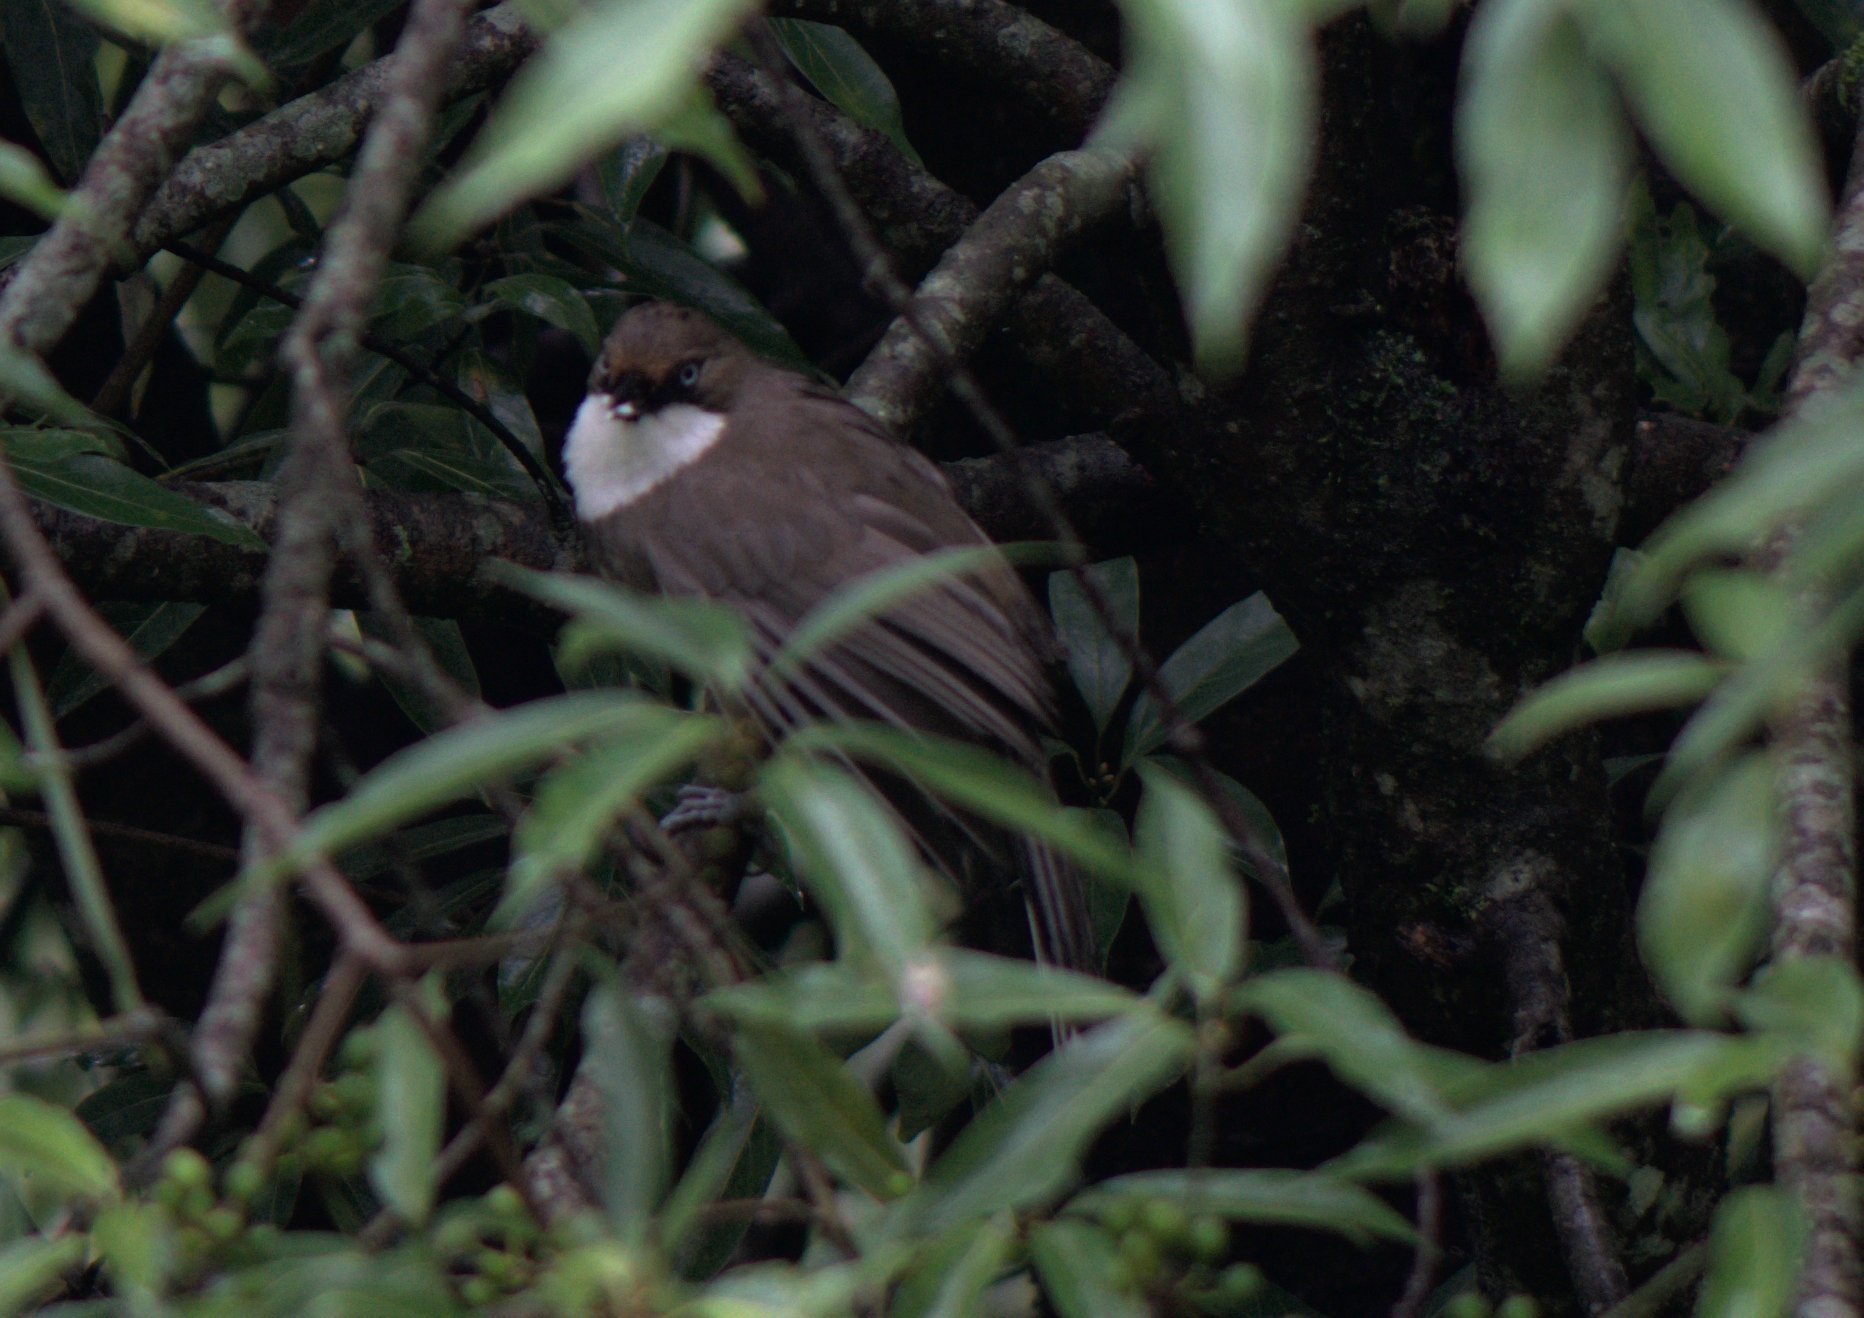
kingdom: Animalia
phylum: Chordata
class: Aves
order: Passeriformes
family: Leiothrichidae
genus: Garrulax
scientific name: Garrulax albogularis
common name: White-throated laughingthrush
